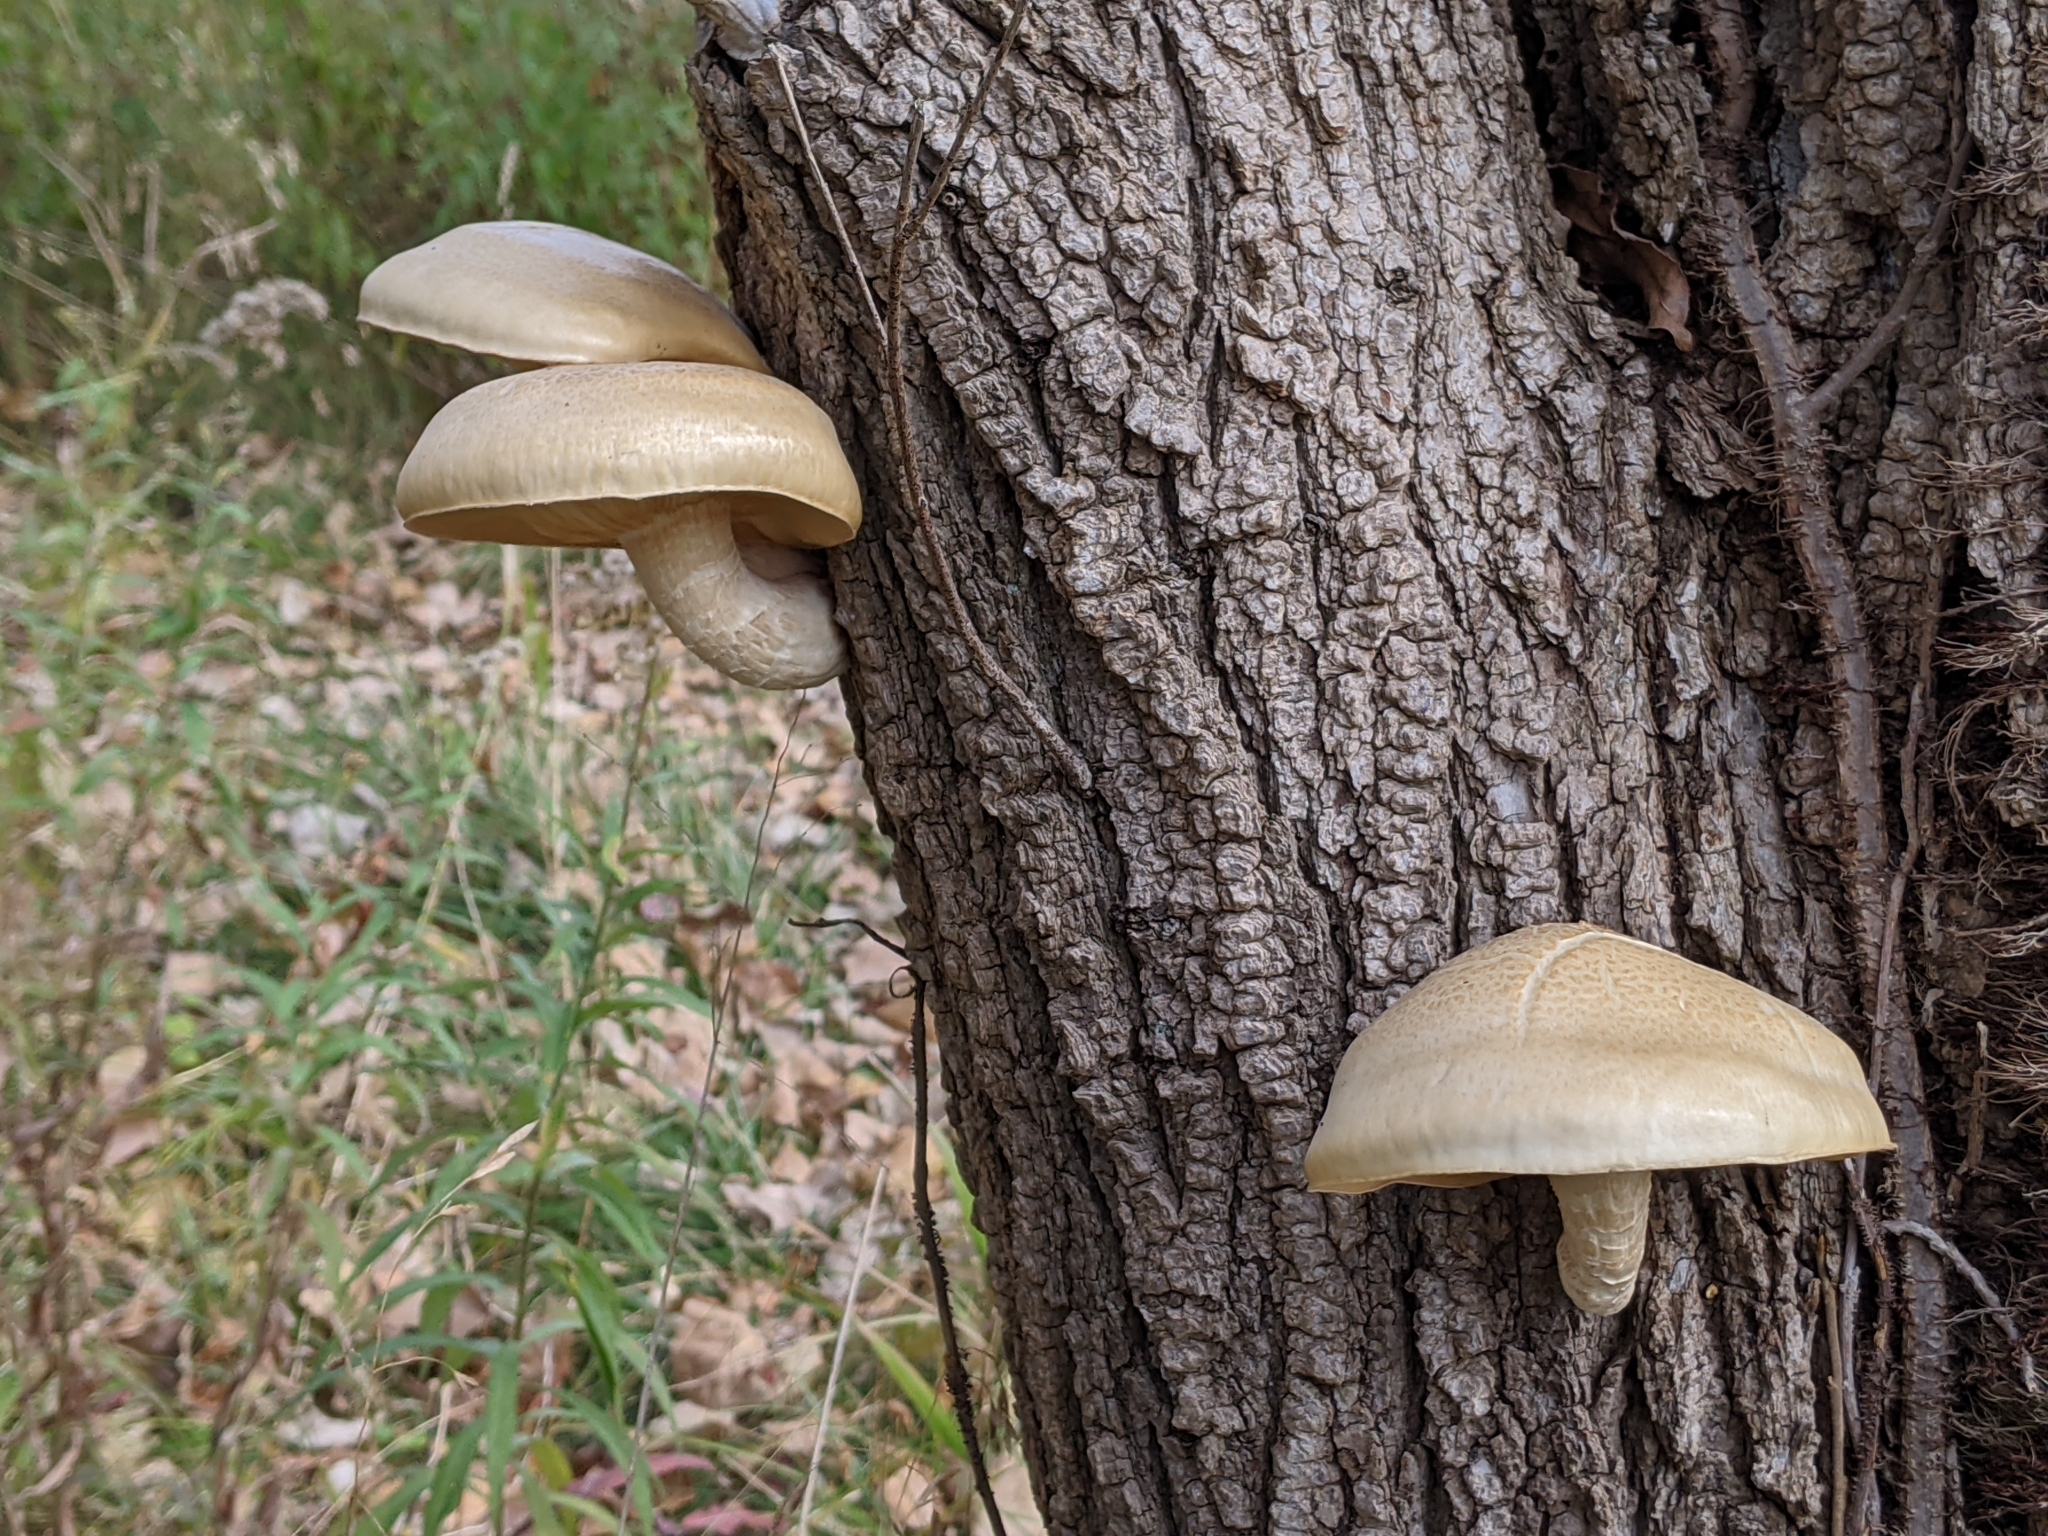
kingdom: Fungi
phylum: Basidiomycota
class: Agaricomycetes
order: Agaricales
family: Lyophyllaceae
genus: Hypsizygus
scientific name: Hypsizygus ulmarius
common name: Elm leech
